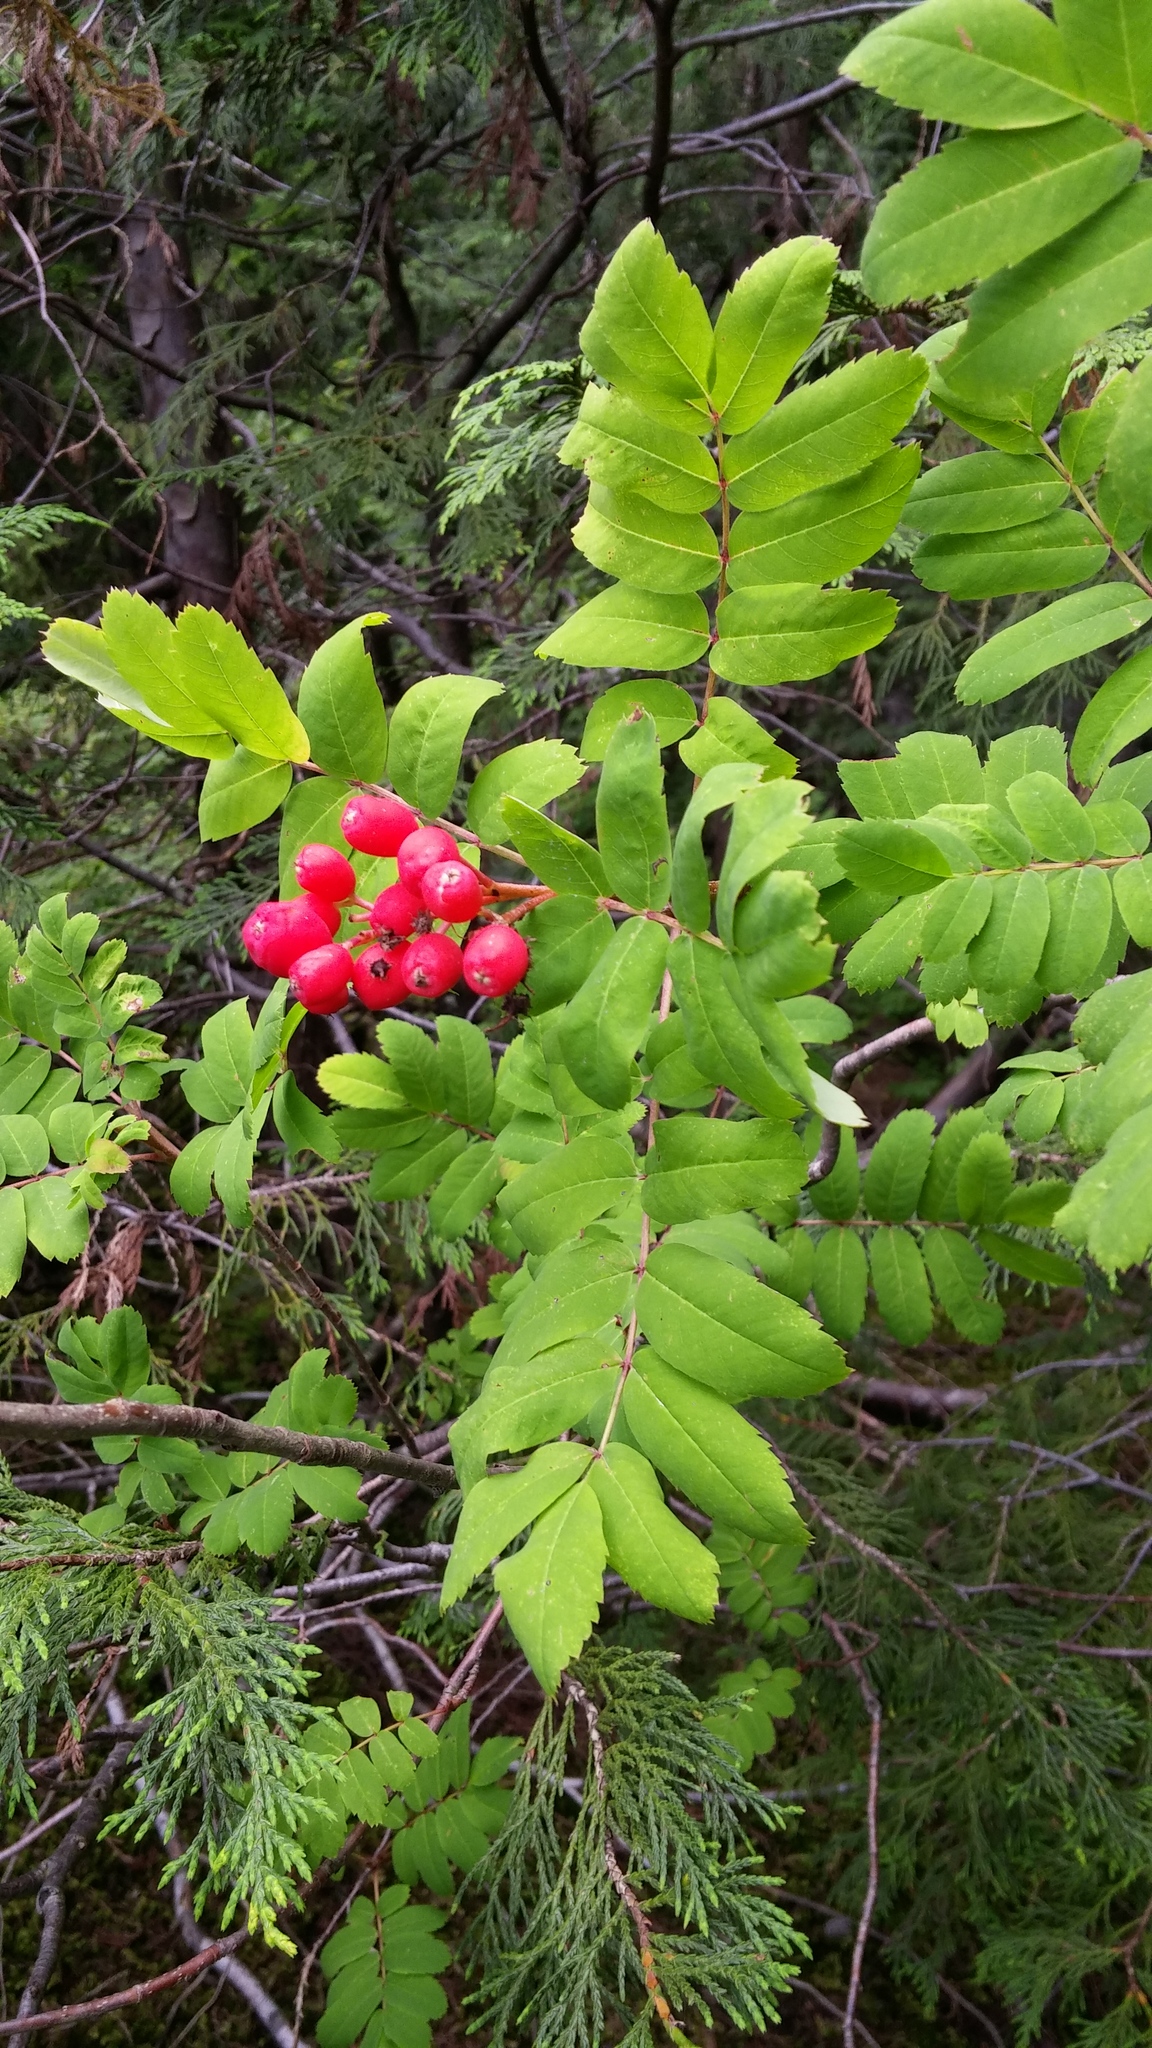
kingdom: Plantae
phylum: Tracheophyta
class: Magnoliopsida
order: Rosales
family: Rosaceae
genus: Sorbus
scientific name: Sorbus sitchensis
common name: Sitka mountain-ash
